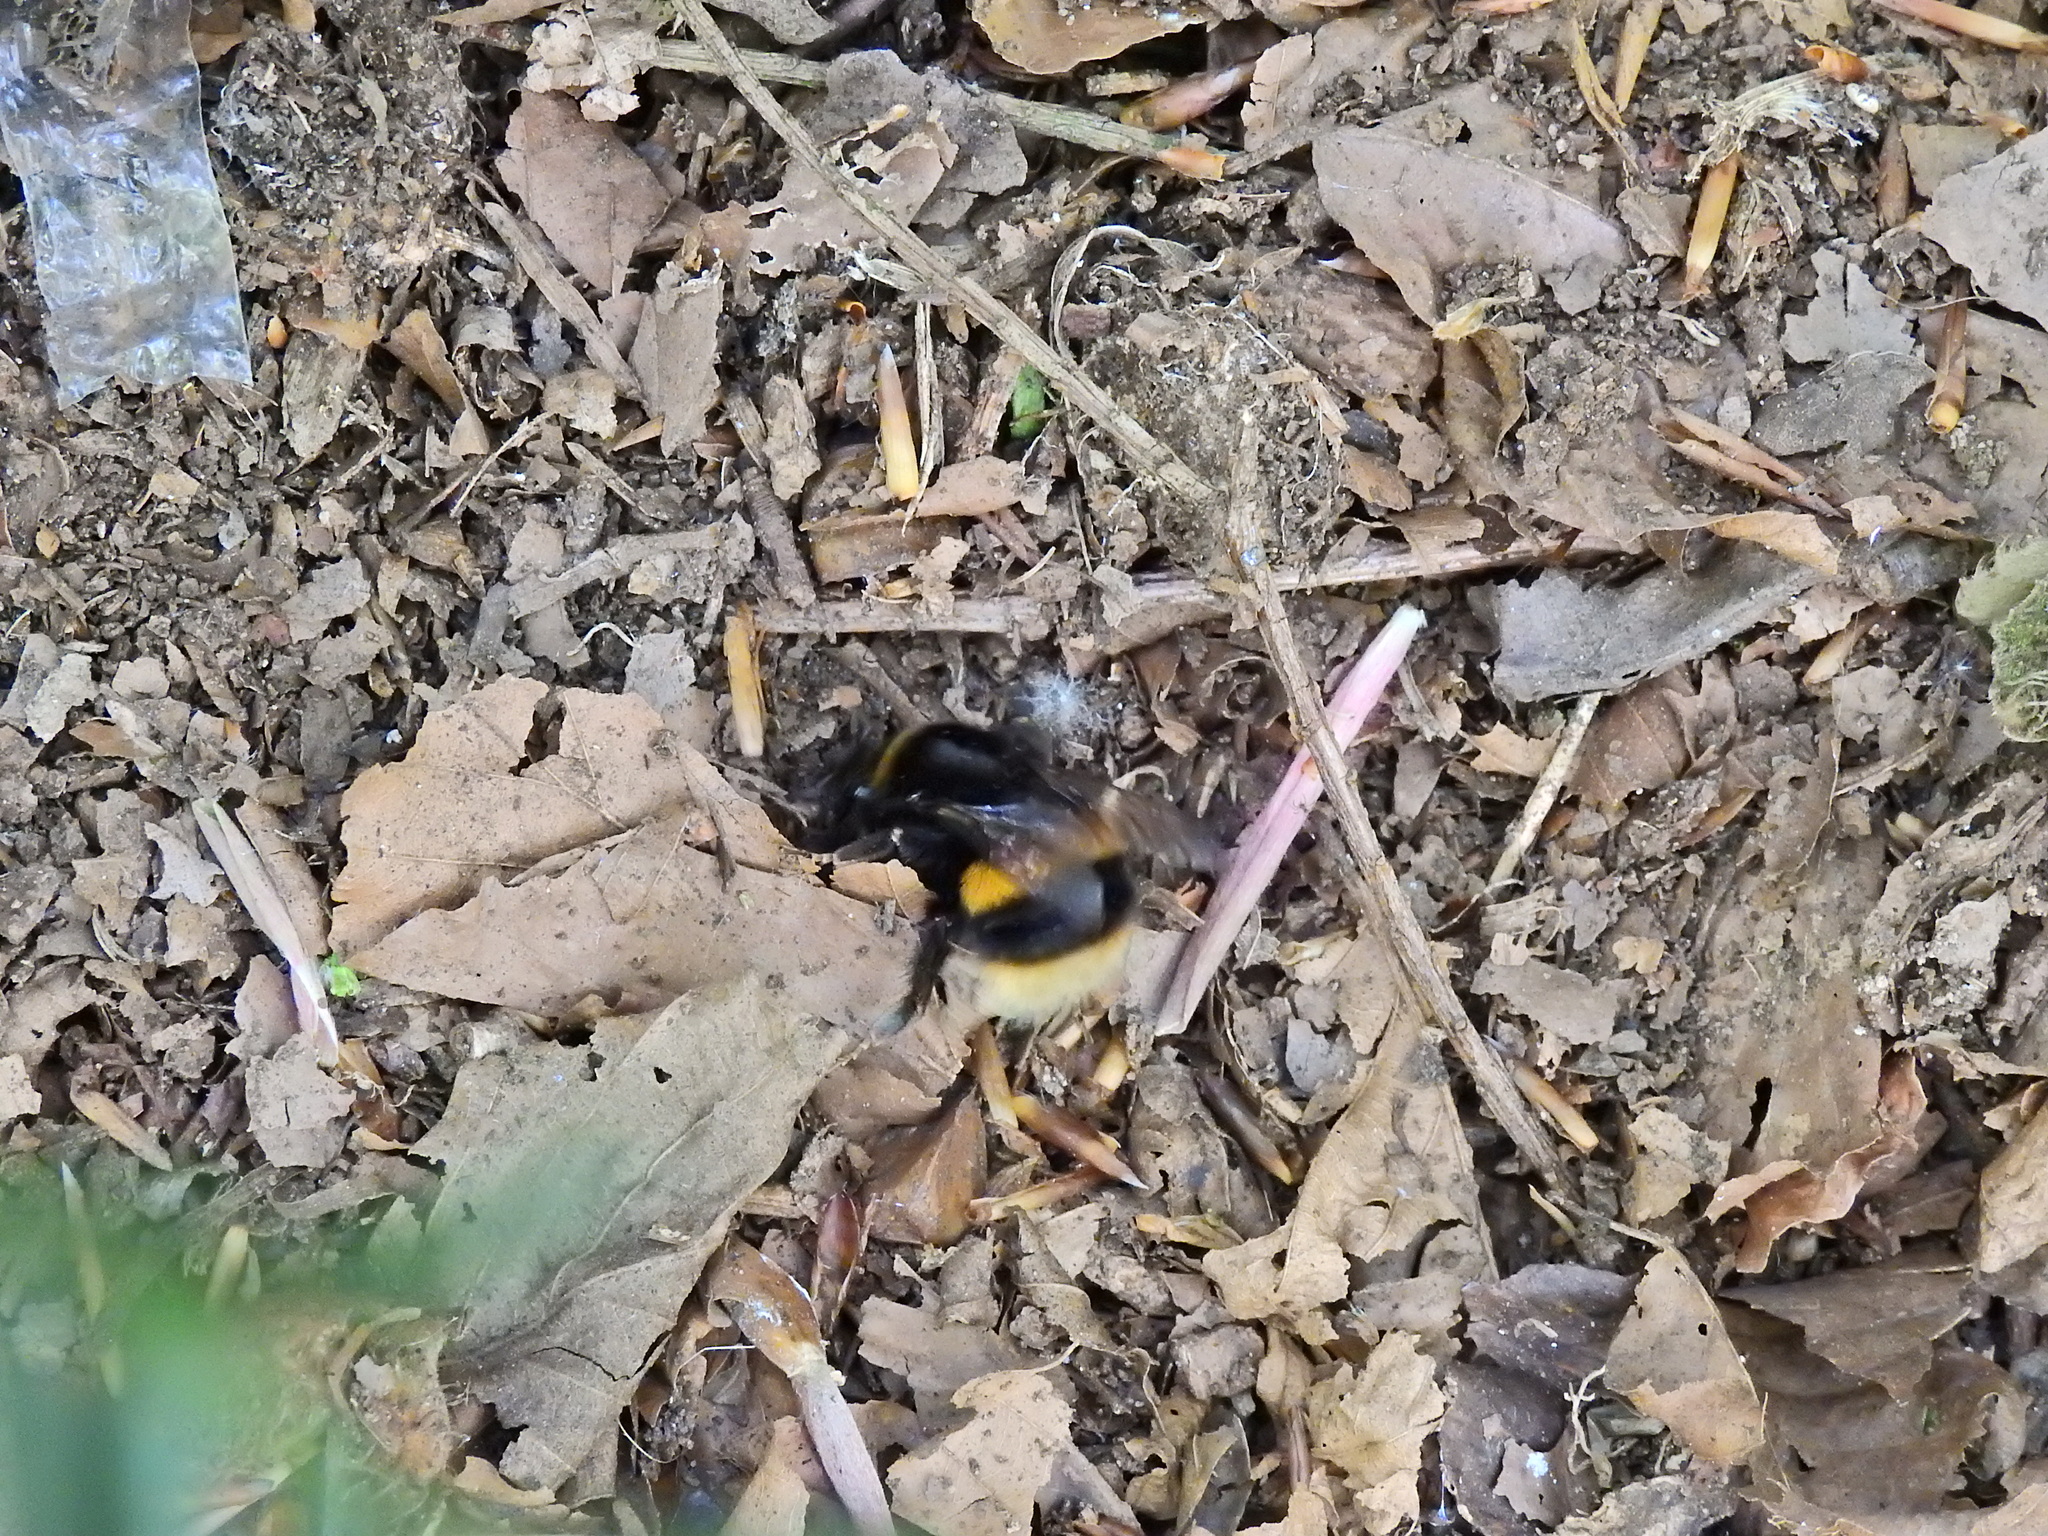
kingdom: Animalia
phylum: Arthropoda
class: Insecta
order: Hymenoptera
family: Apidae
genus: Bombus
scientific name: Bombus terrestris
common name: Buff-tailed bumblebee
